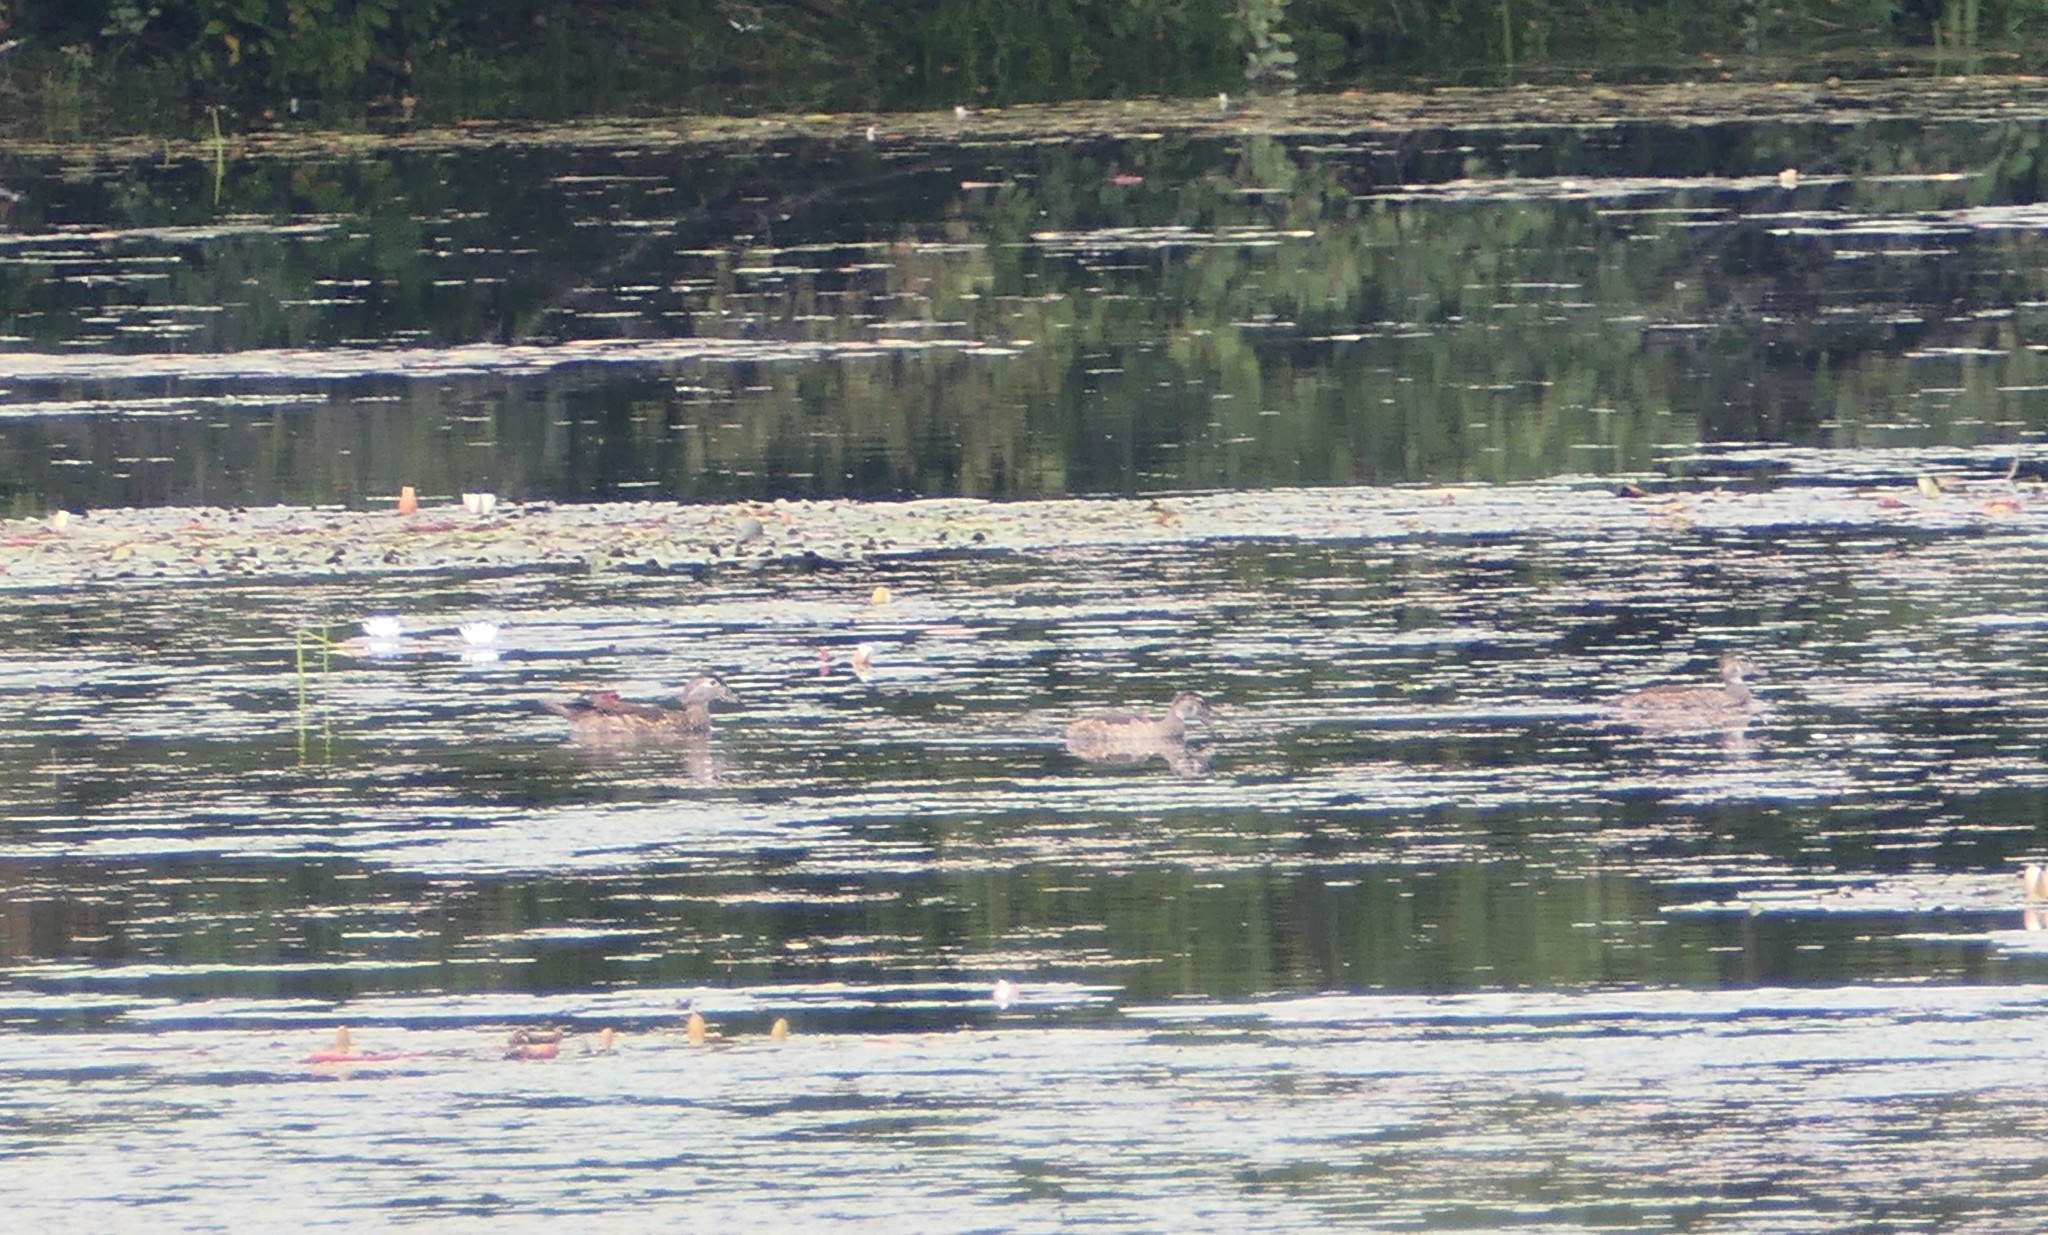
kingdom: Animalia
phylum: Chordata
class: Aves
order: Anseriformes
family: Anatidae
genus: Aix
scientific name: Aix sponsa
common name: Wood duck
